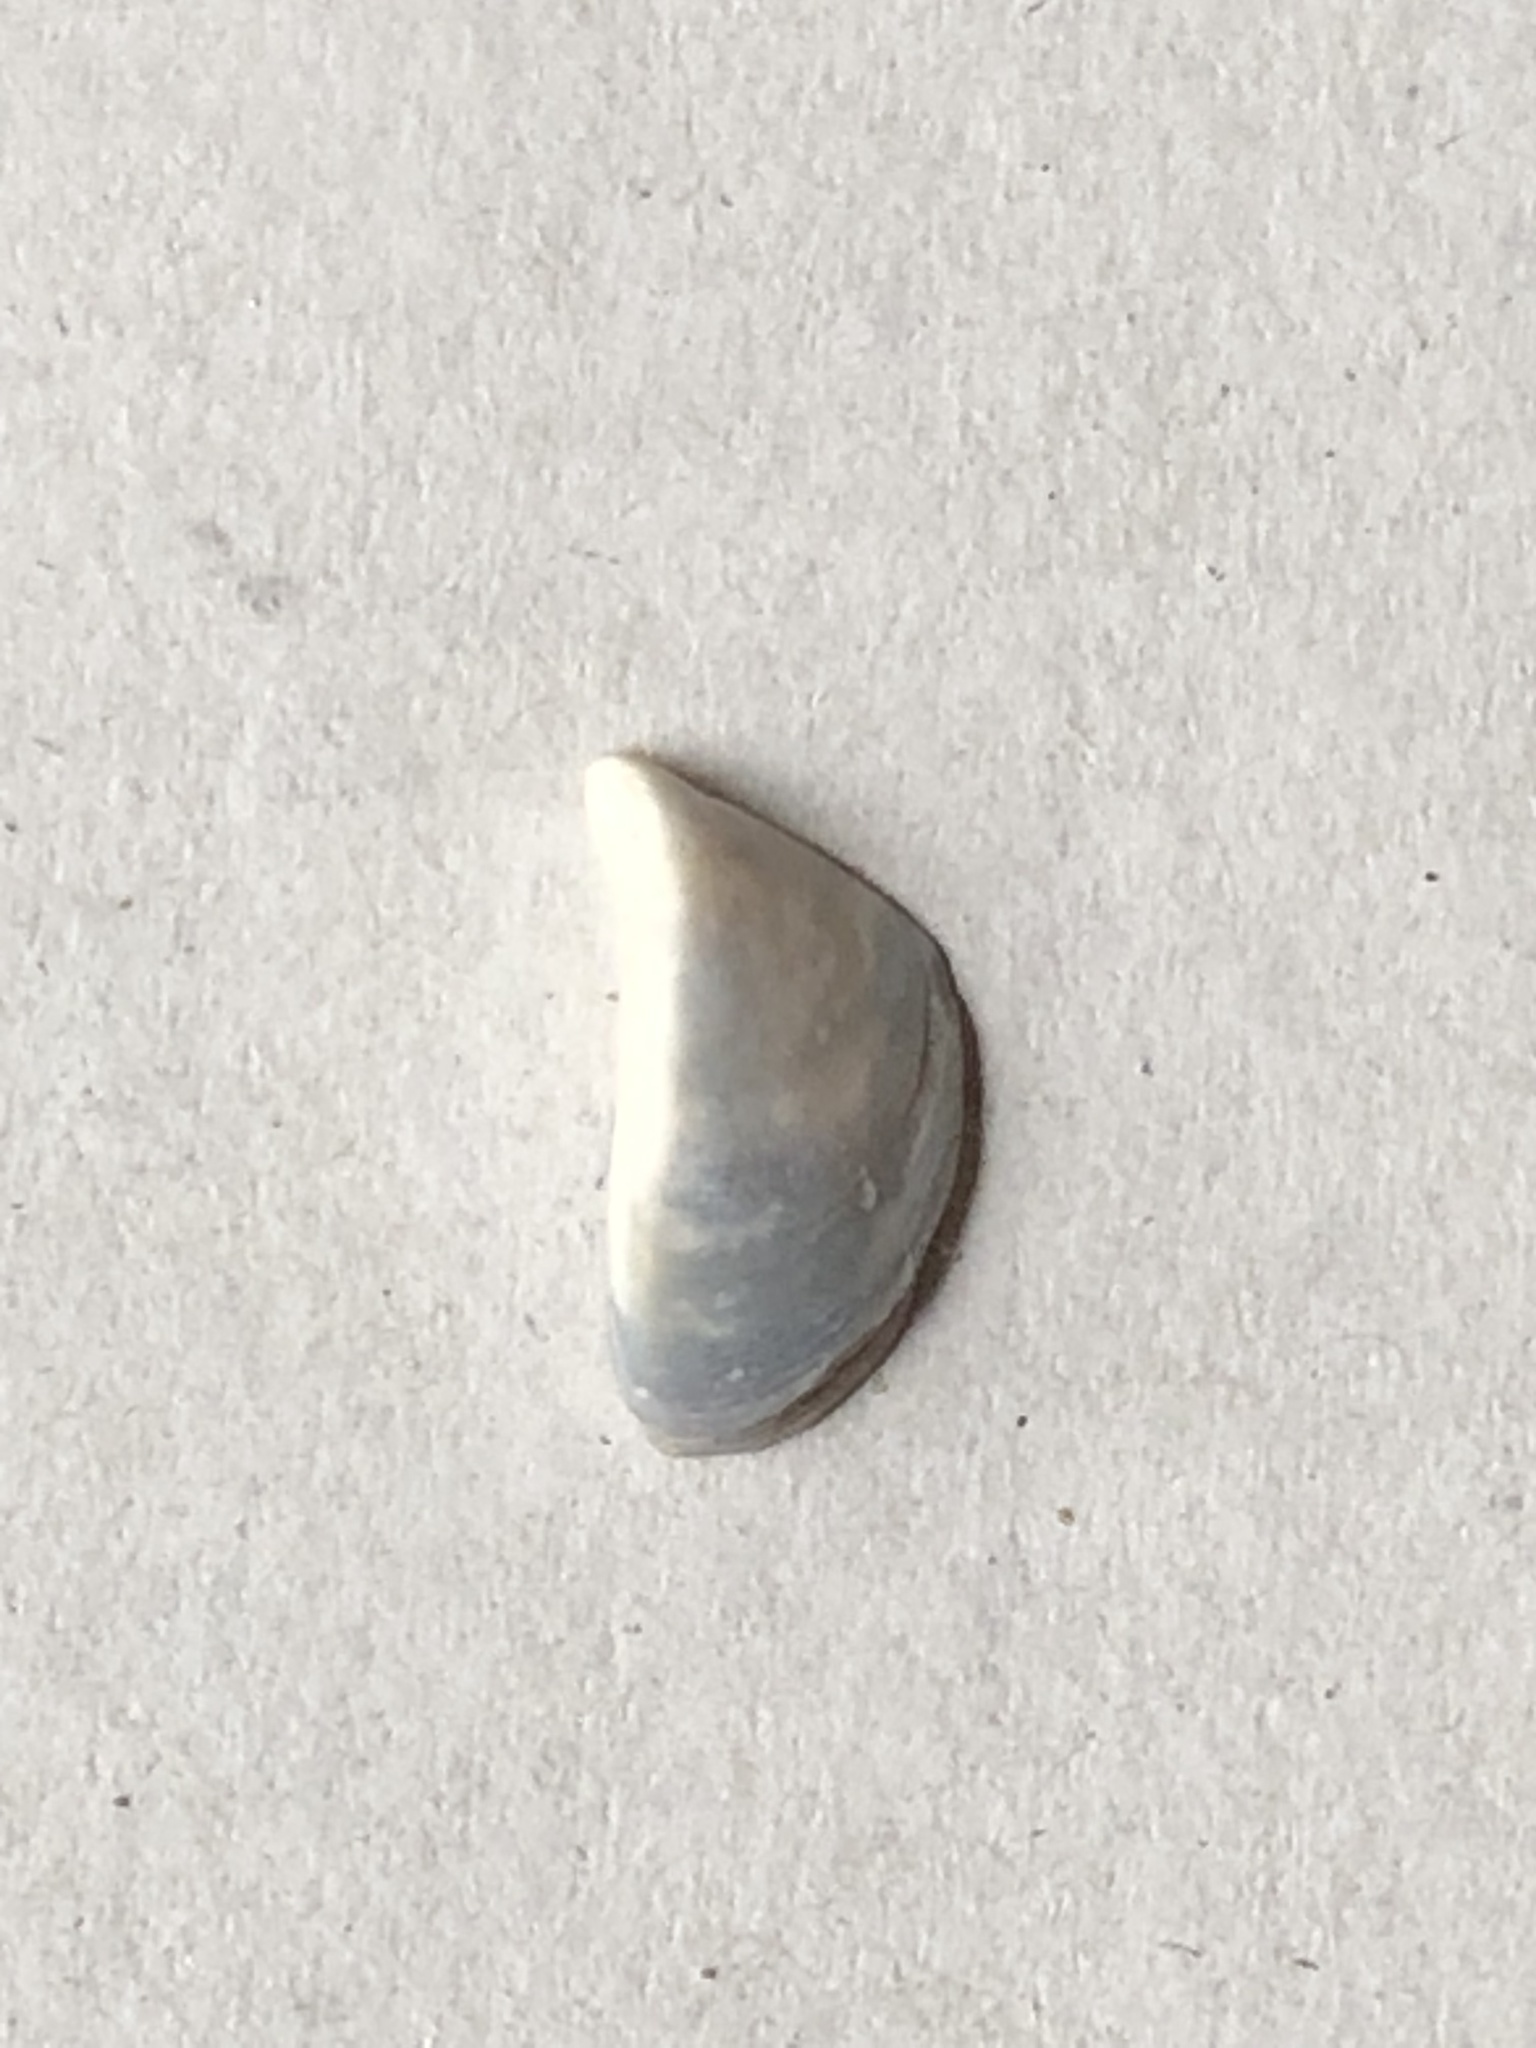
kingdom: Animalia
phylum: Mollusca
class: Bivalvia
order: Myida
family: Dreissenidae
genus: Dreissena
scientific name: Dreissena polymorpha
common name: Zebra mussel
